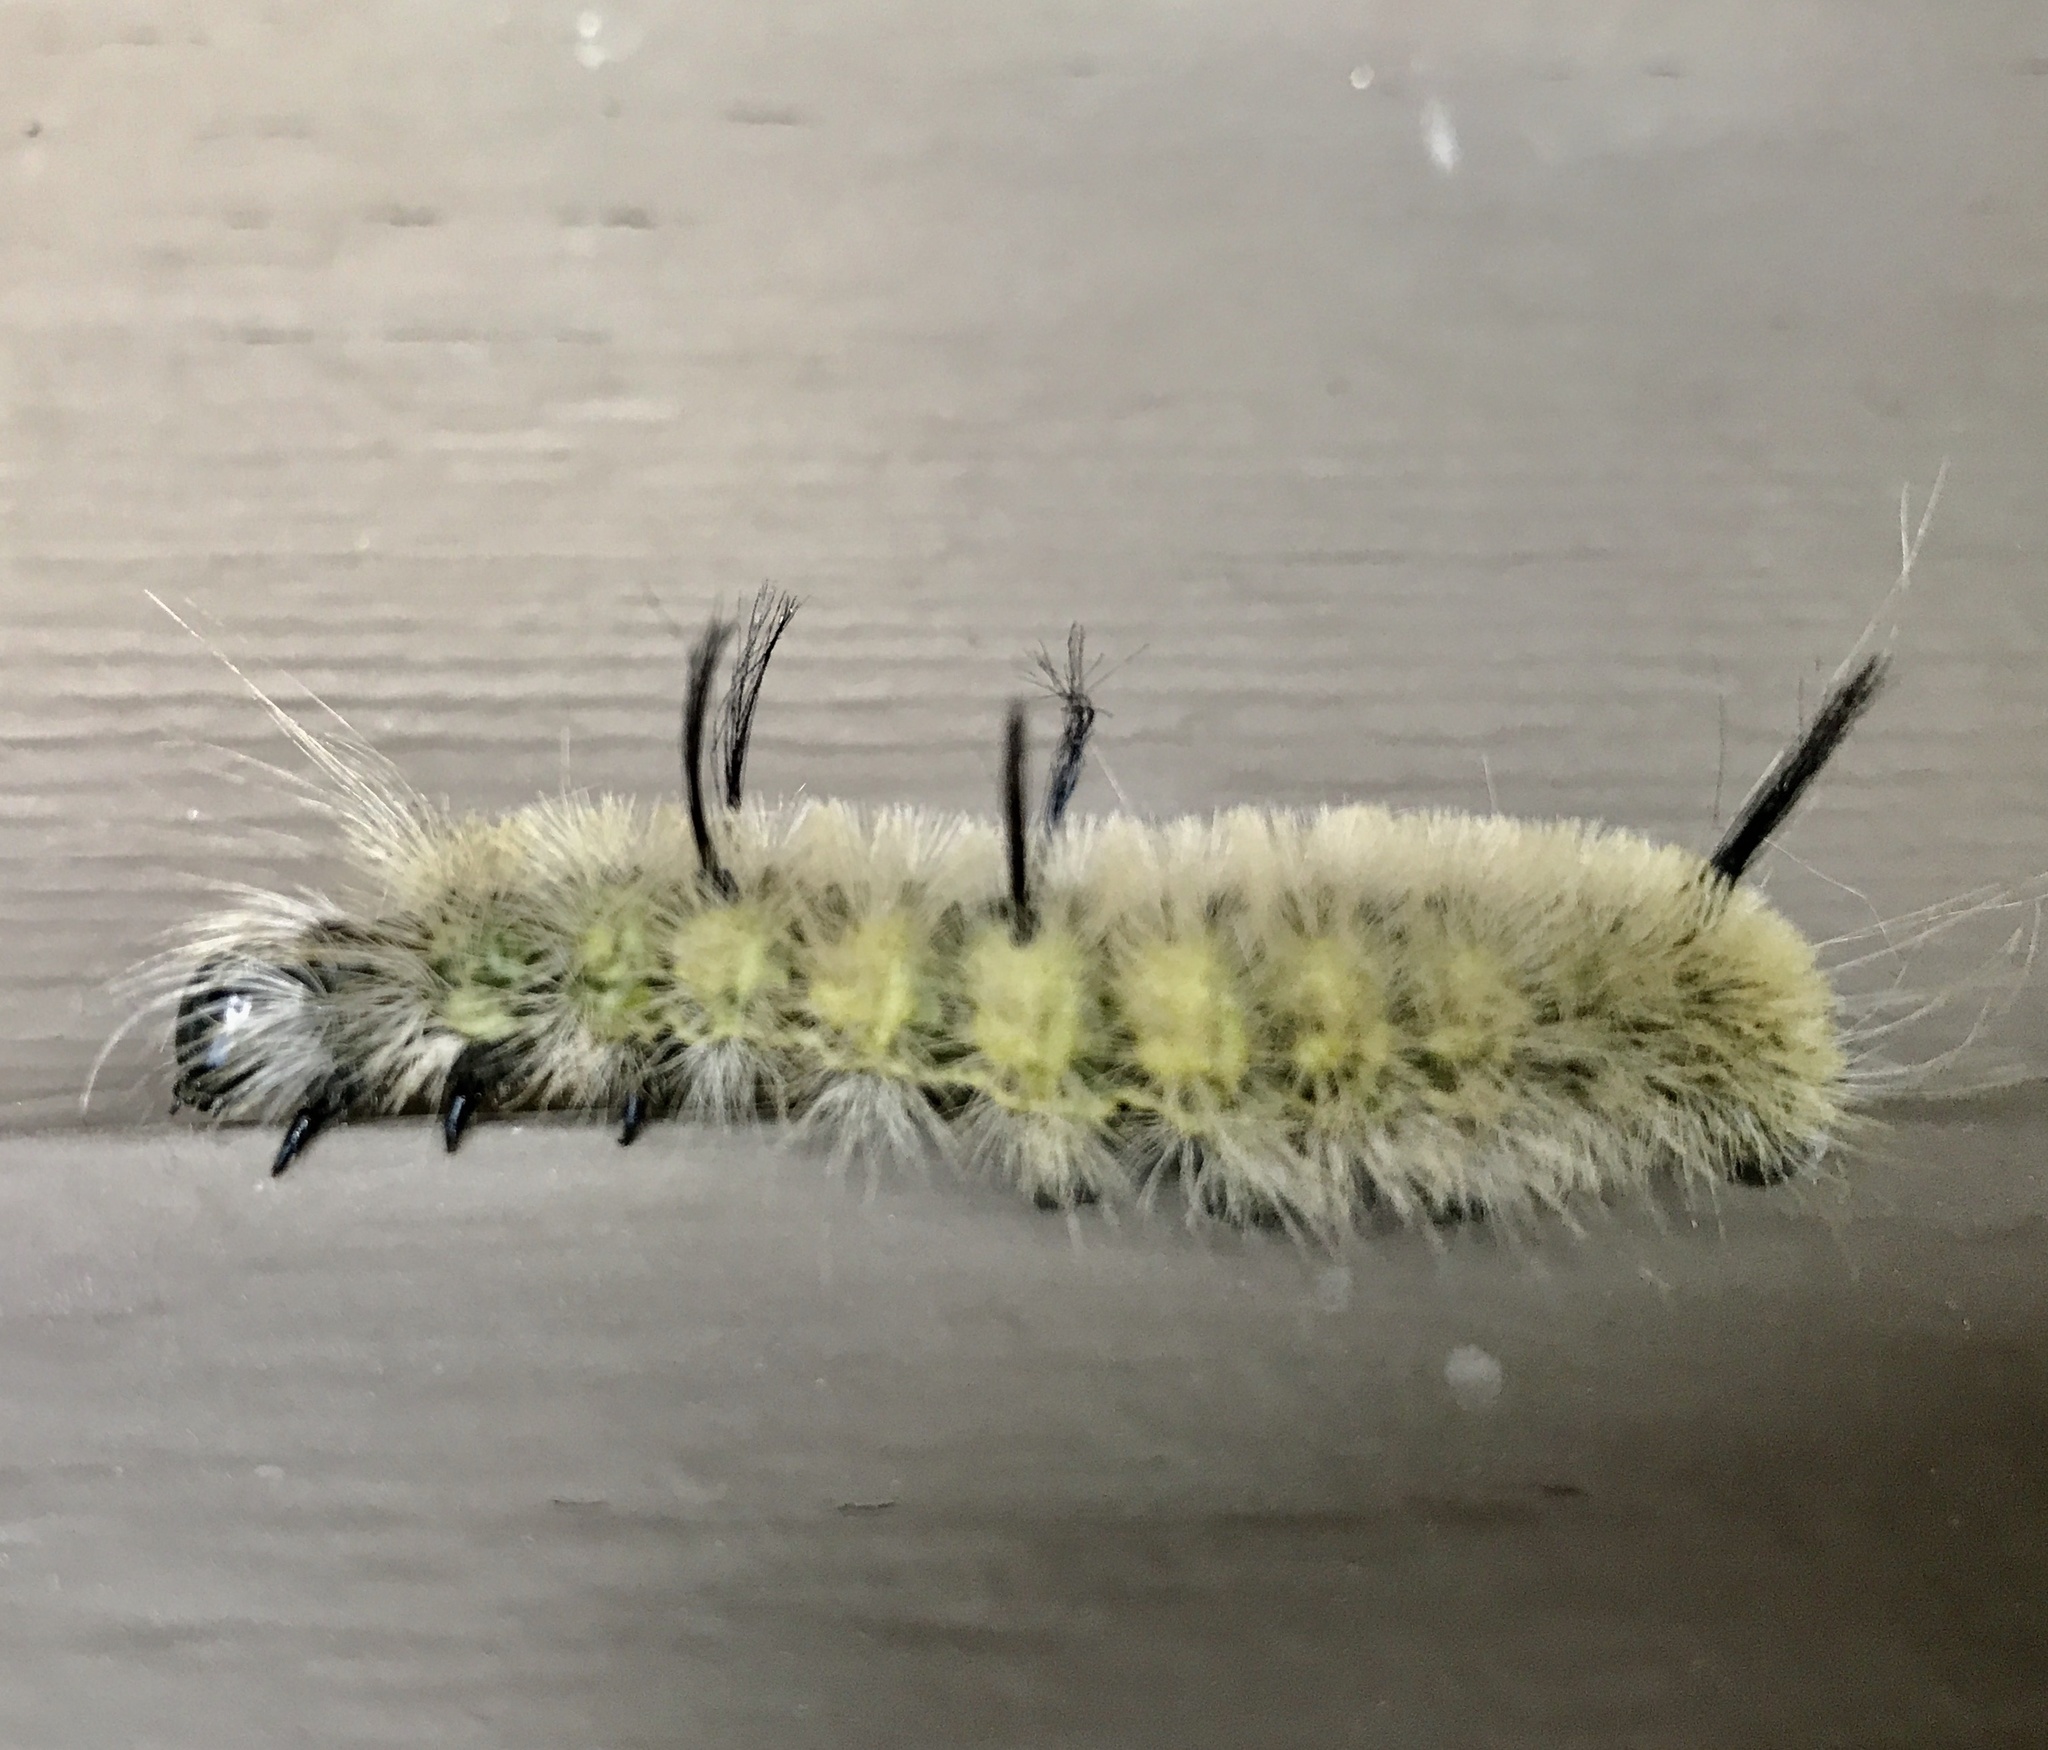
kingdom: Animalia
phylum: Arthropoda
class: Insecta
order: Lepidoptera
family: Noctuidae
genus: Acronicta
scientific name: Acronicta americana
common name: American dagger
